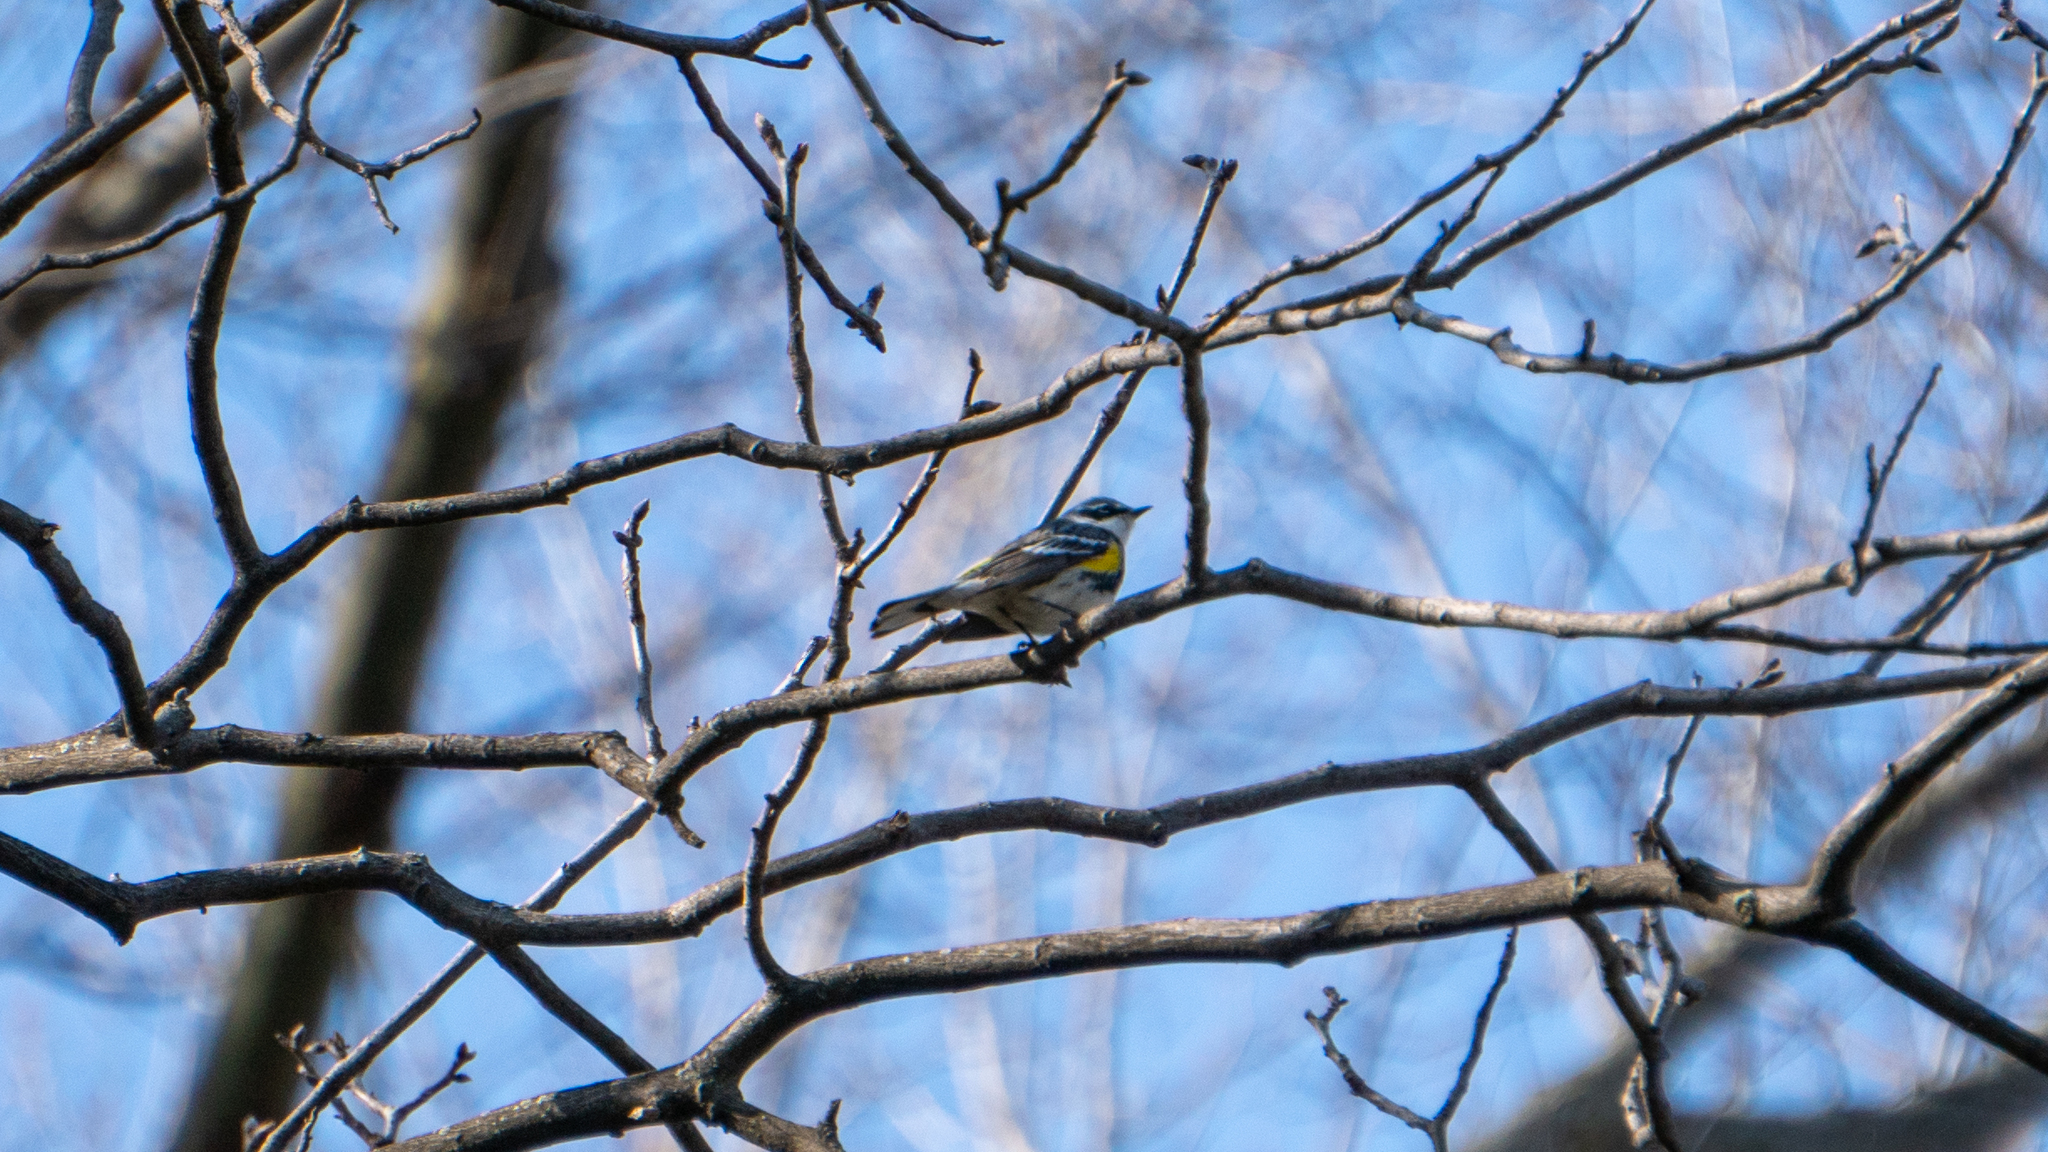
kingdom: Animalia
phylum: Chordata
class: Aves
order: Passeriformes
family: Parulidae
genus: Setophaga
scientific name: Setophaga coronata
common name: Myrtle warbler
